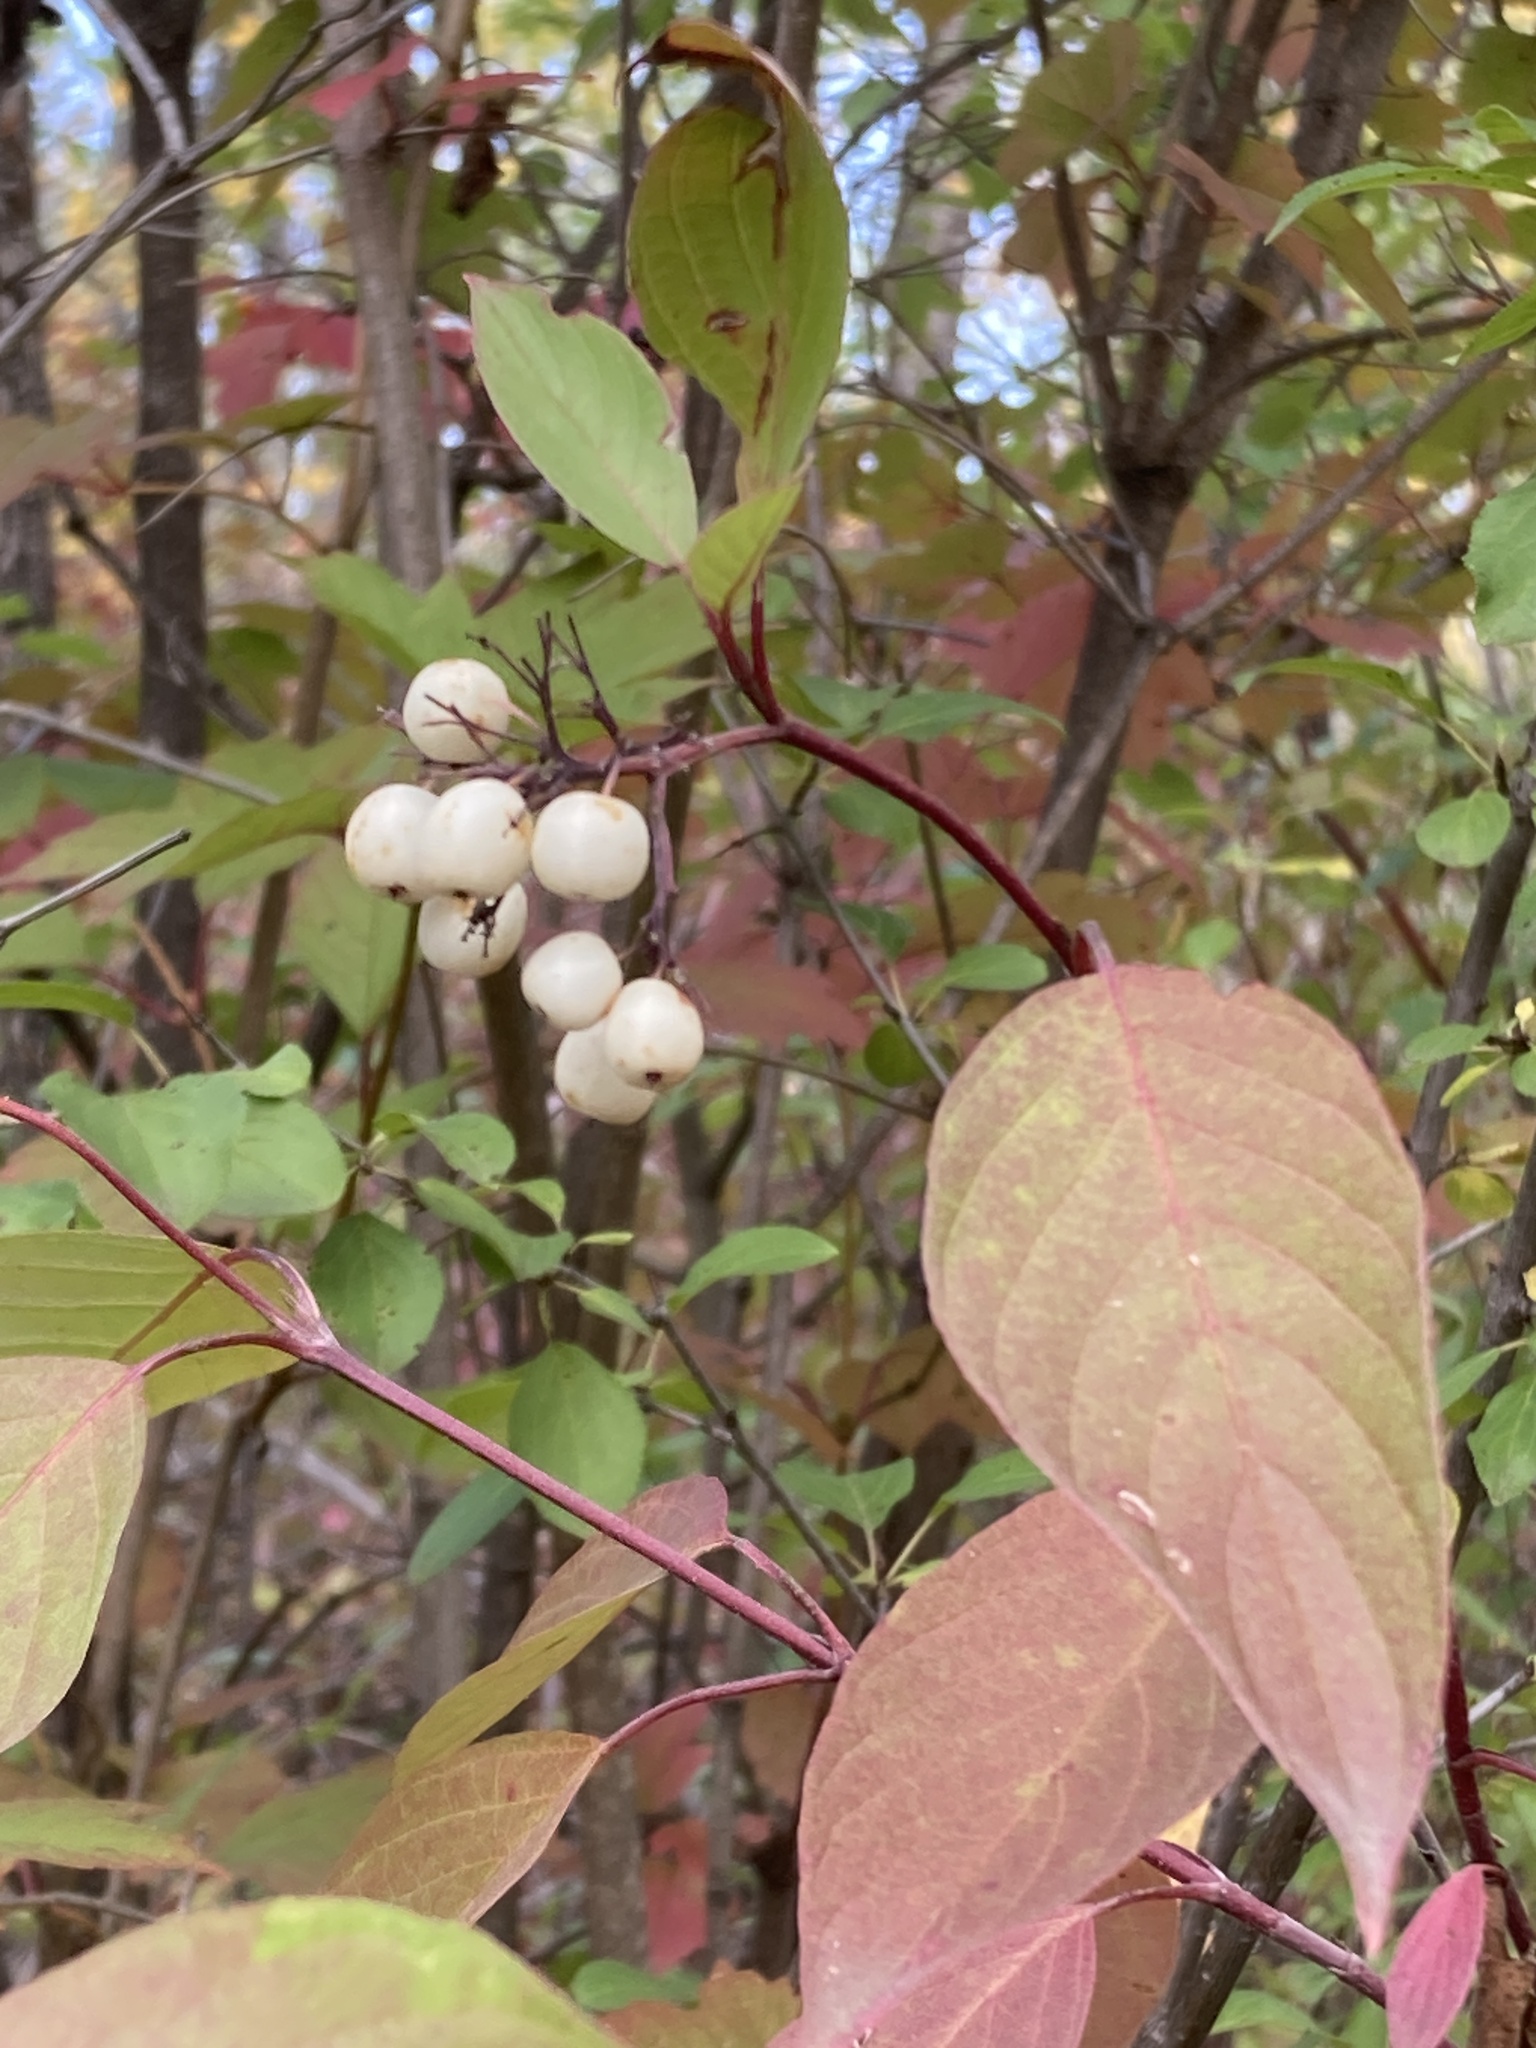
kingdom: Plantae
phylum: Tracheophyta
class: Magnoliopsida
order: Cornales
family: Cornaceae
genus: Cornus
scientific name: Cornus sericea
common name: Red-osier dogwood
